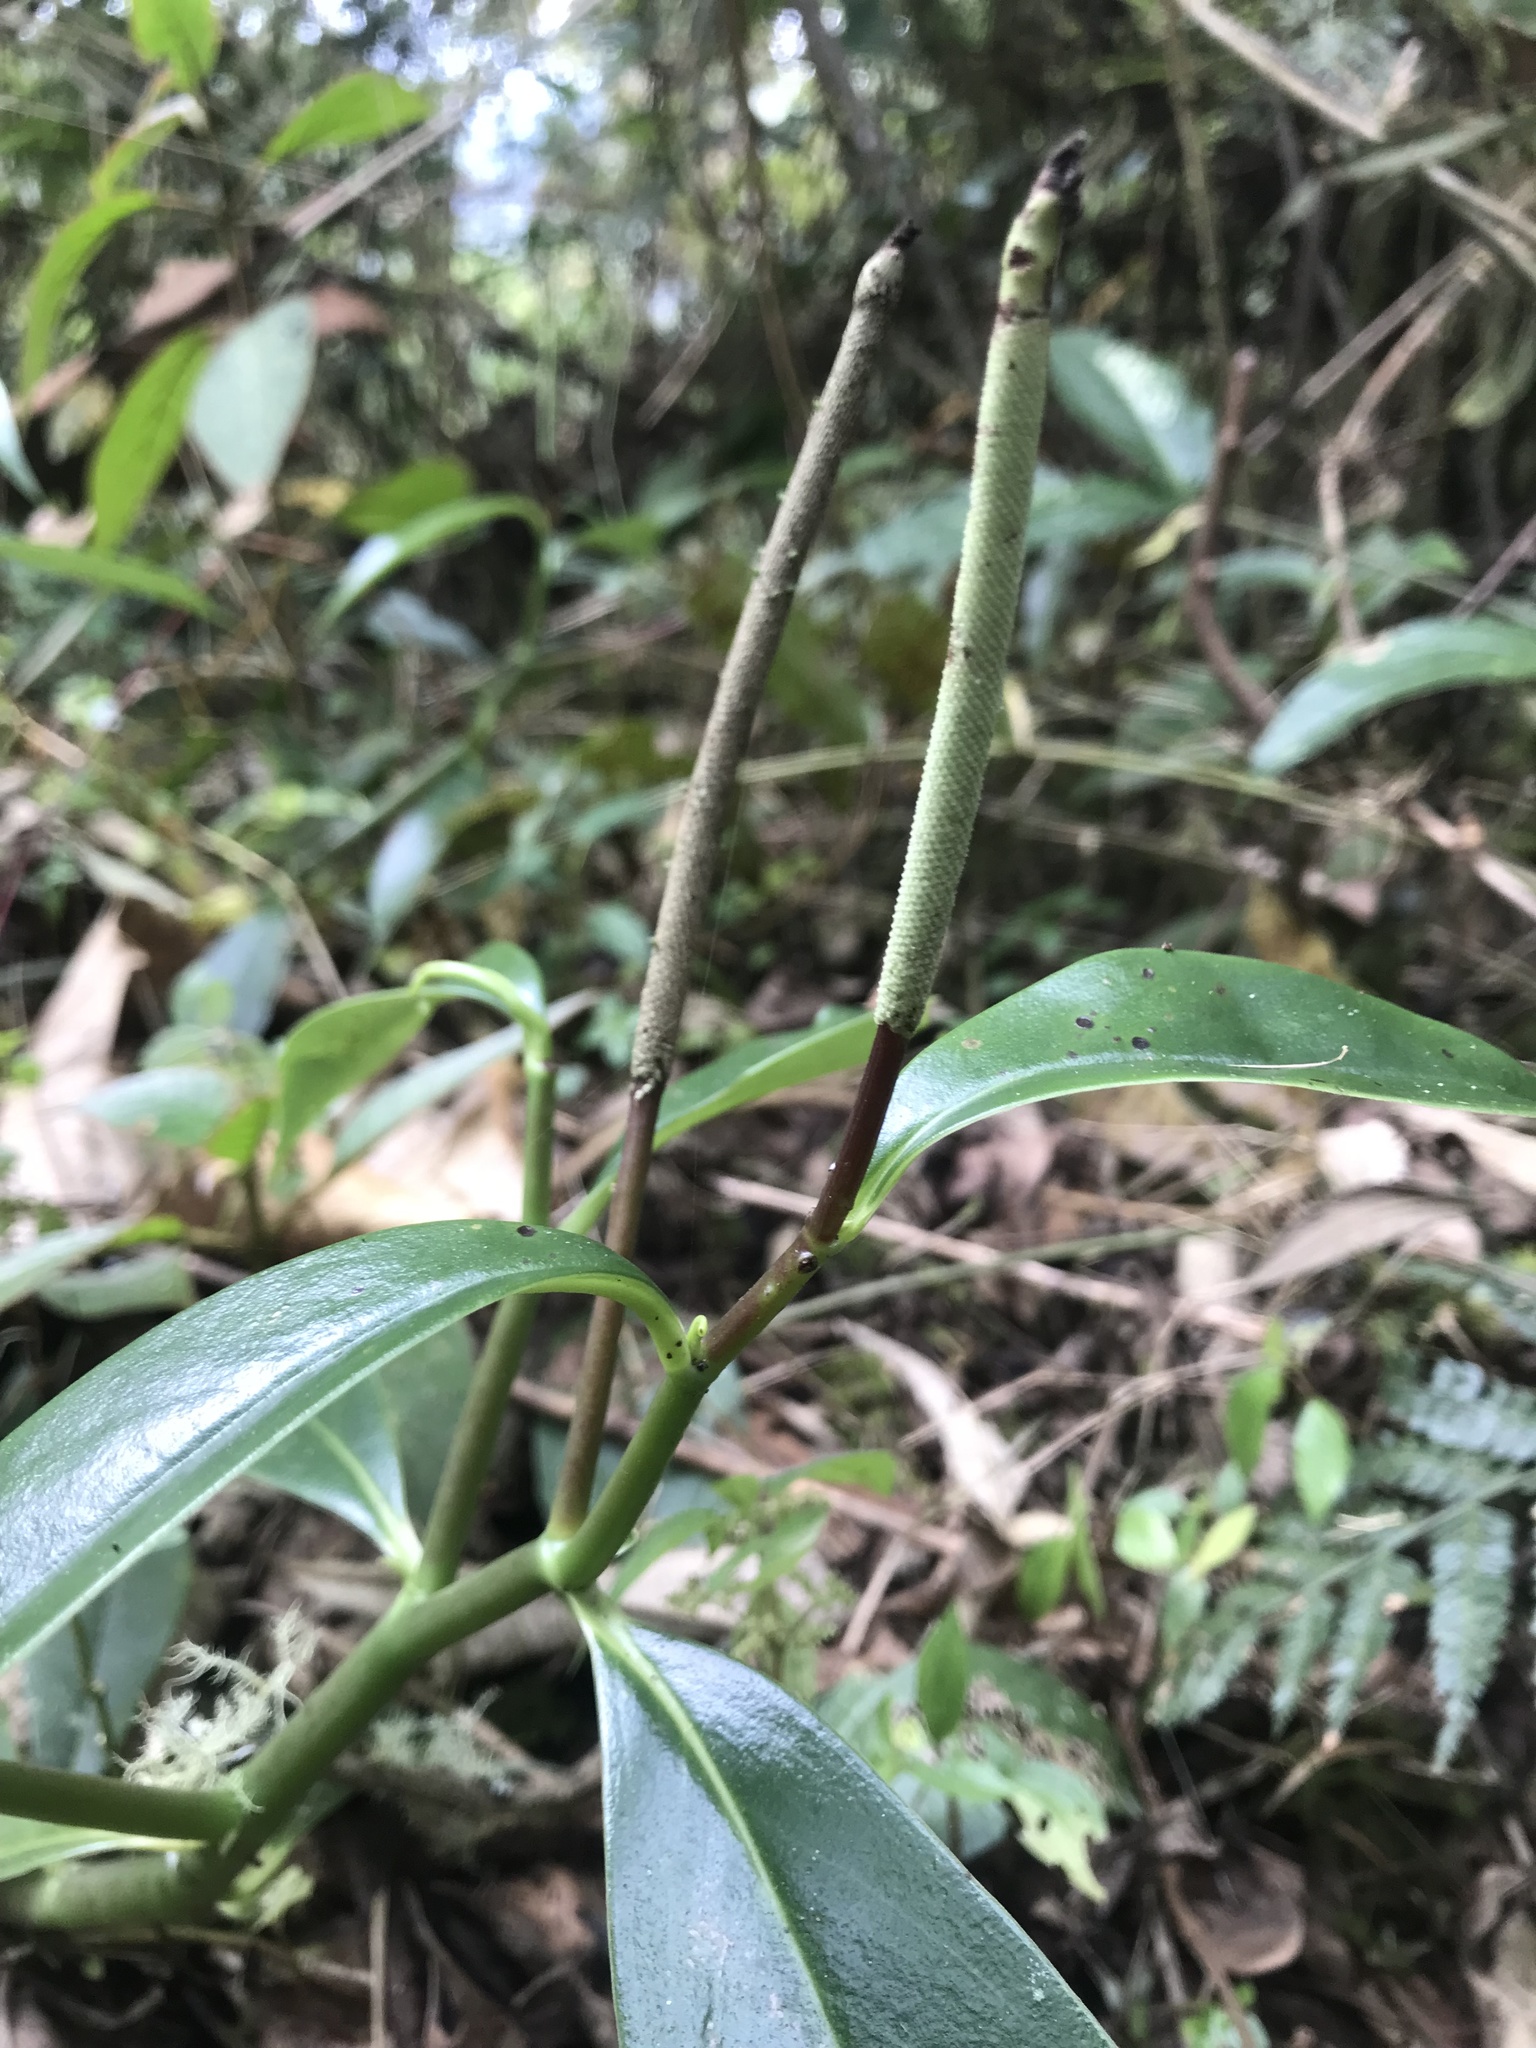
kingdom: Plantae
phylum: Tracheophyta
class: Magnoliopsida
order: Piperales
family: Piperaceae
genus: Peperomia
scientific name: Peperomia acuminata
